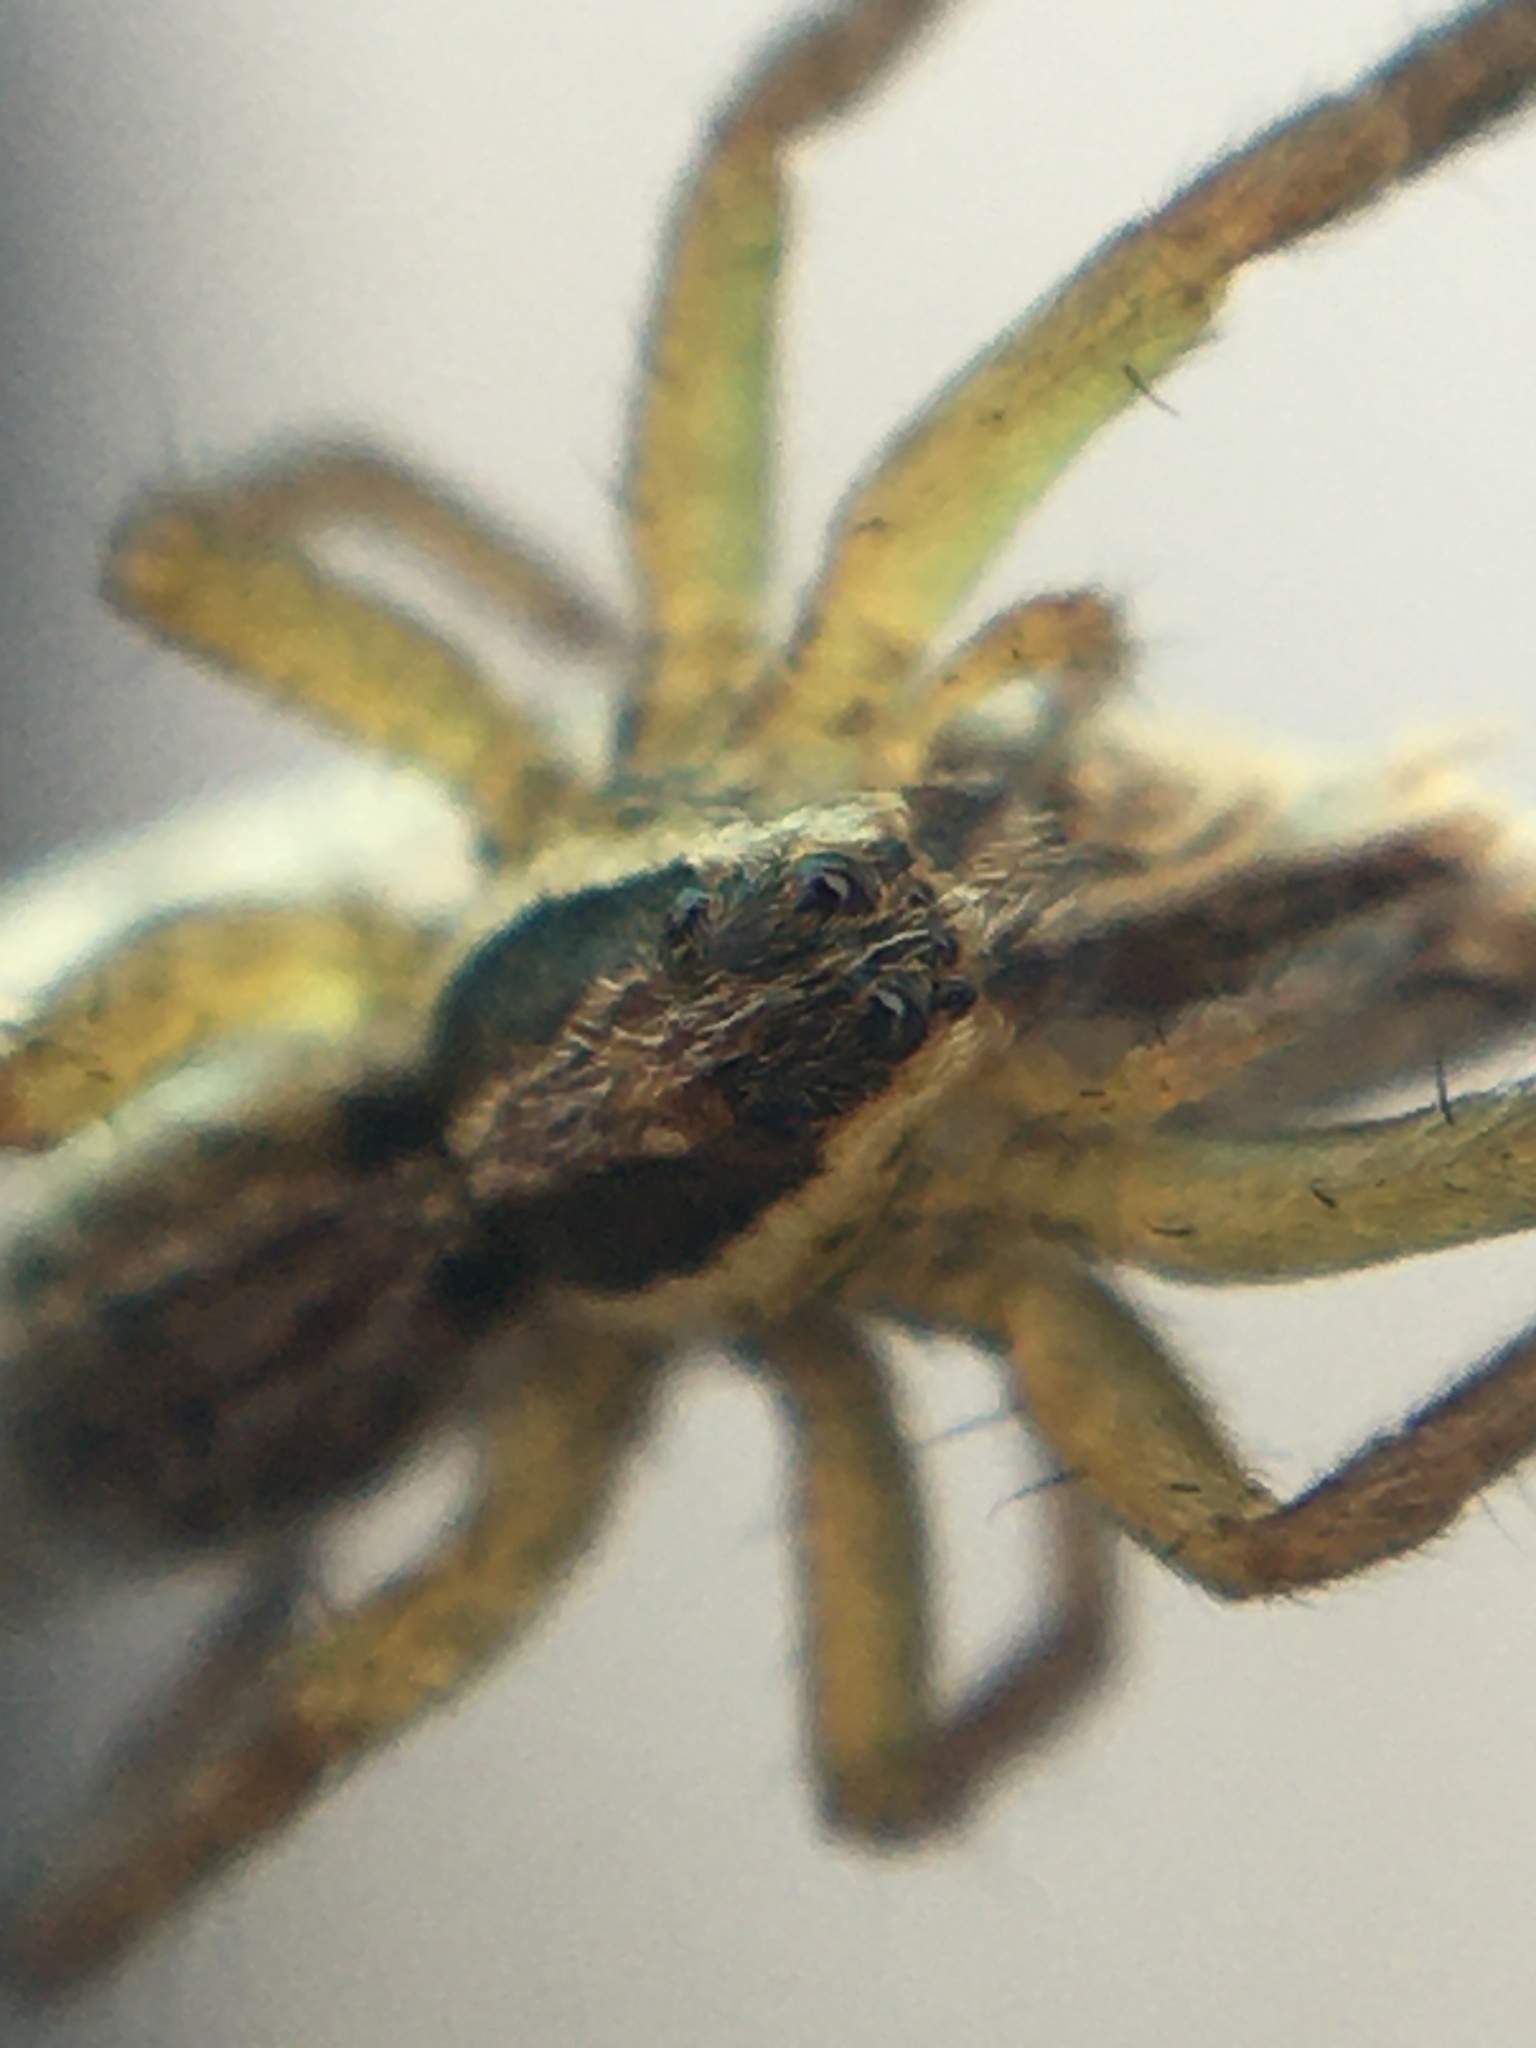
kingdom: Animalia
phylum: Arthropoda
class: Arachnida
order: Araneae
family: Lycosidae
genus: Hogna
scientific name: Hogna radiata
